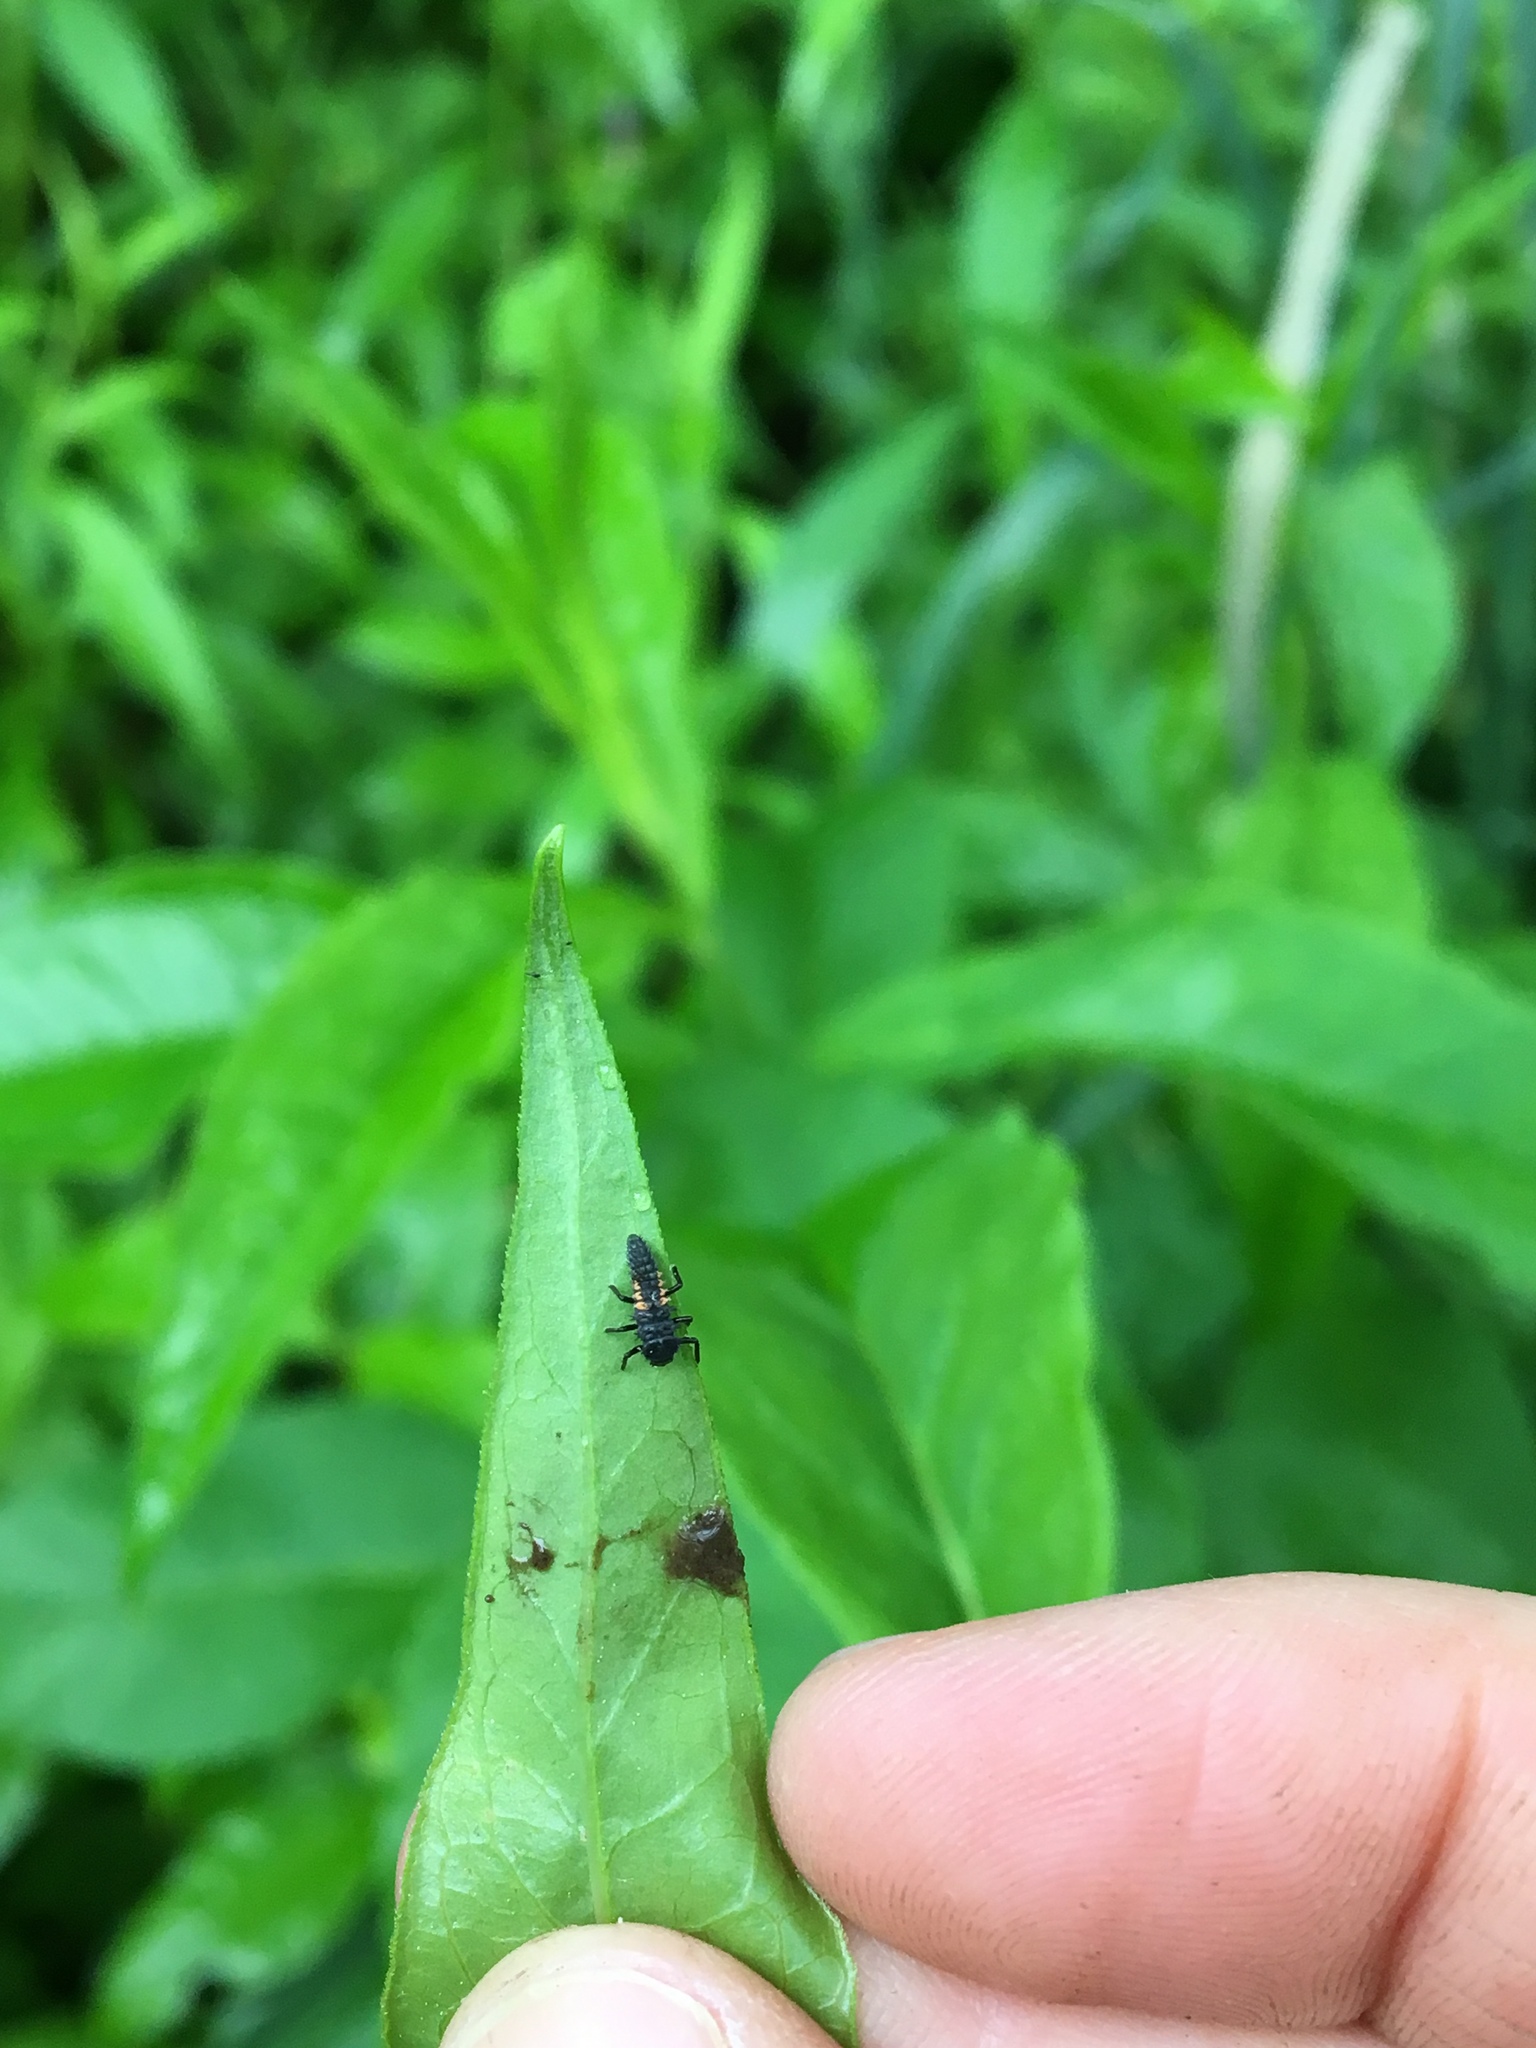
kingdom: Animalia
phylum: Arthropoda
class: Insecta
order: Coleoptera
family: Coccinellidae
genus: Harmonia
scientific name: Harmonia axyridis
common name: Harlequin ladybird
